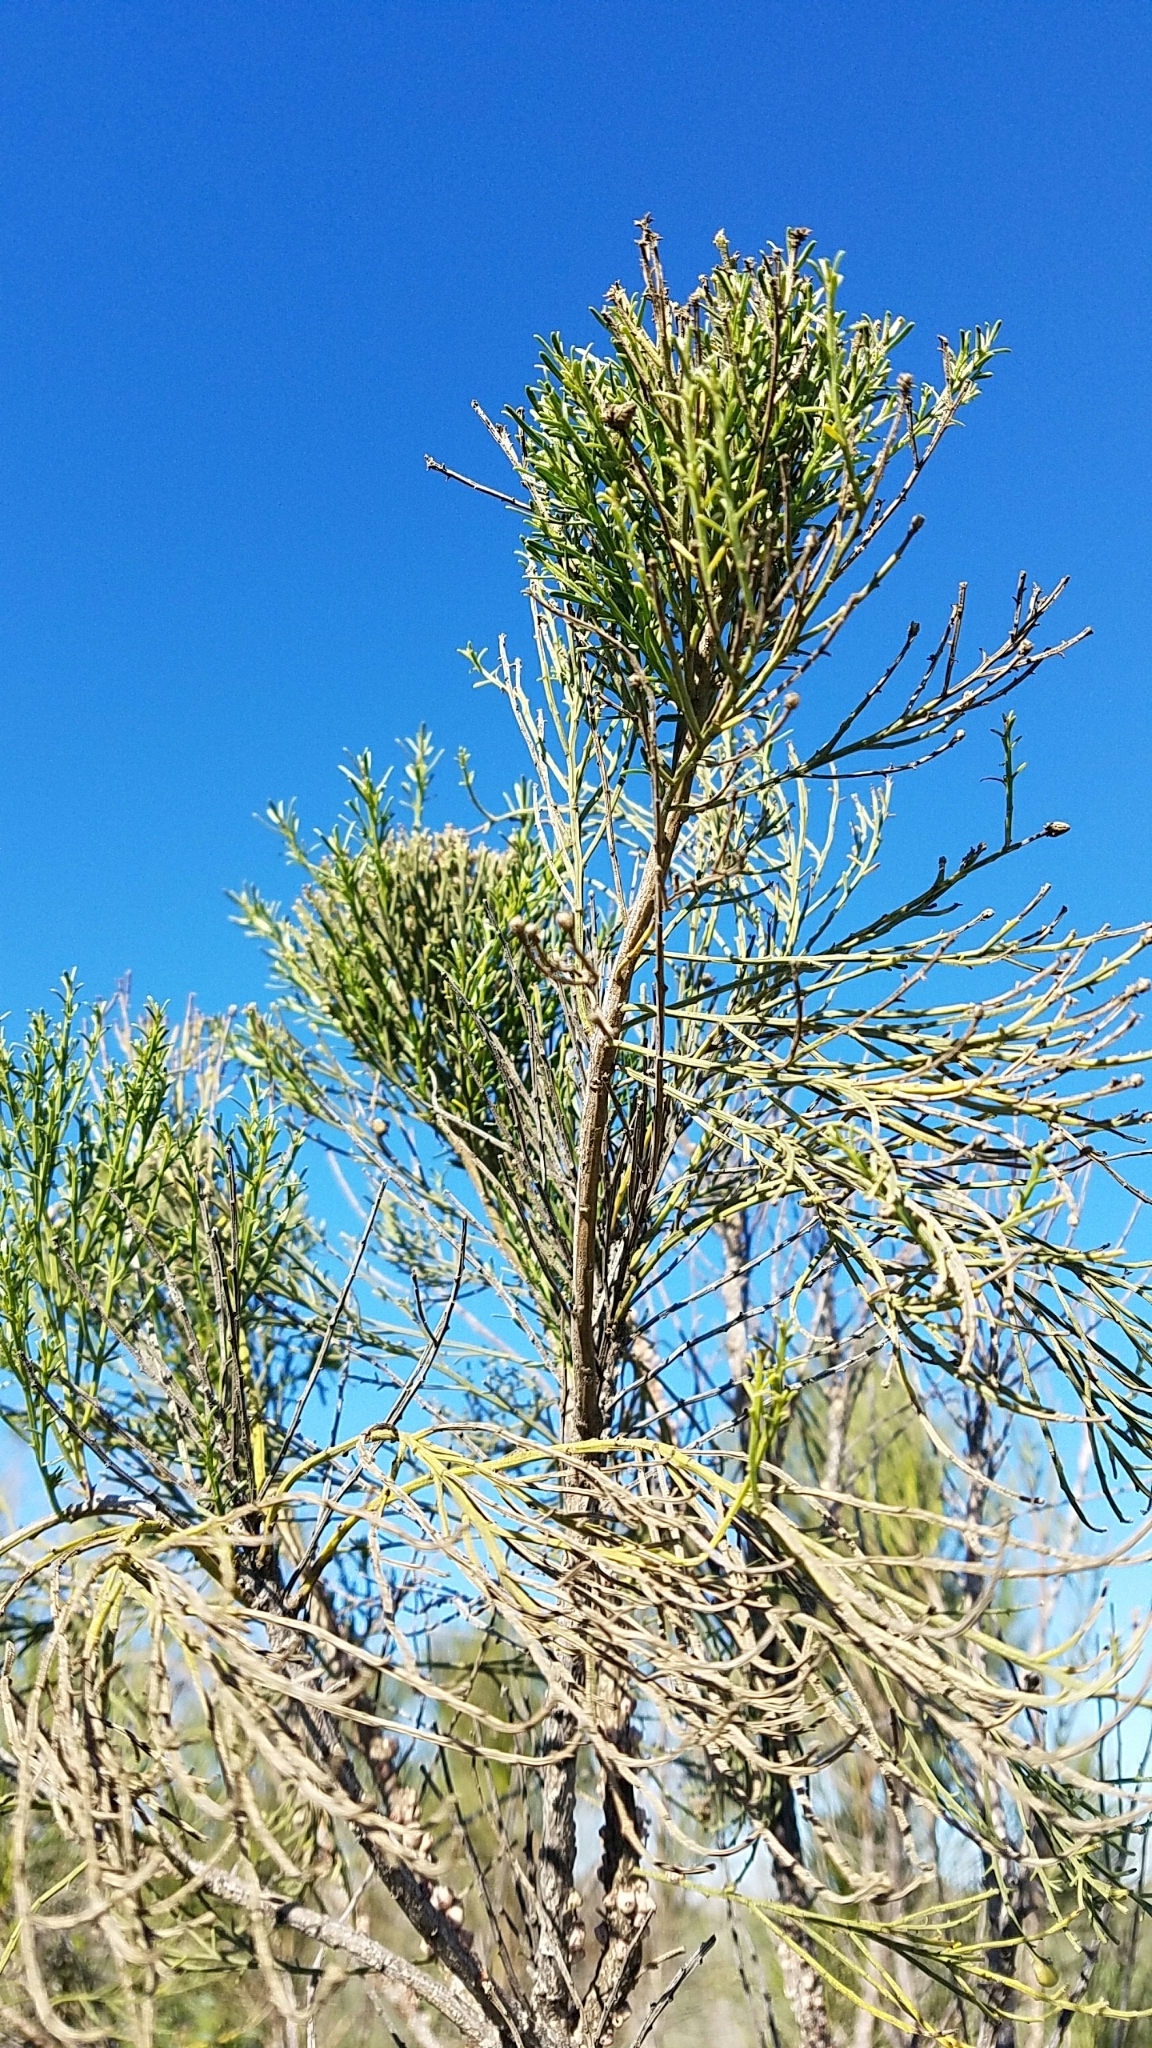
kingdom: Plantae
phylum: Tracheophyta
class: Magnoliopsida
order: Asterales
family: Asteraceae
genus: Baccharis
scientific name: Baccharis sarothroides
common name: Desert-broom
